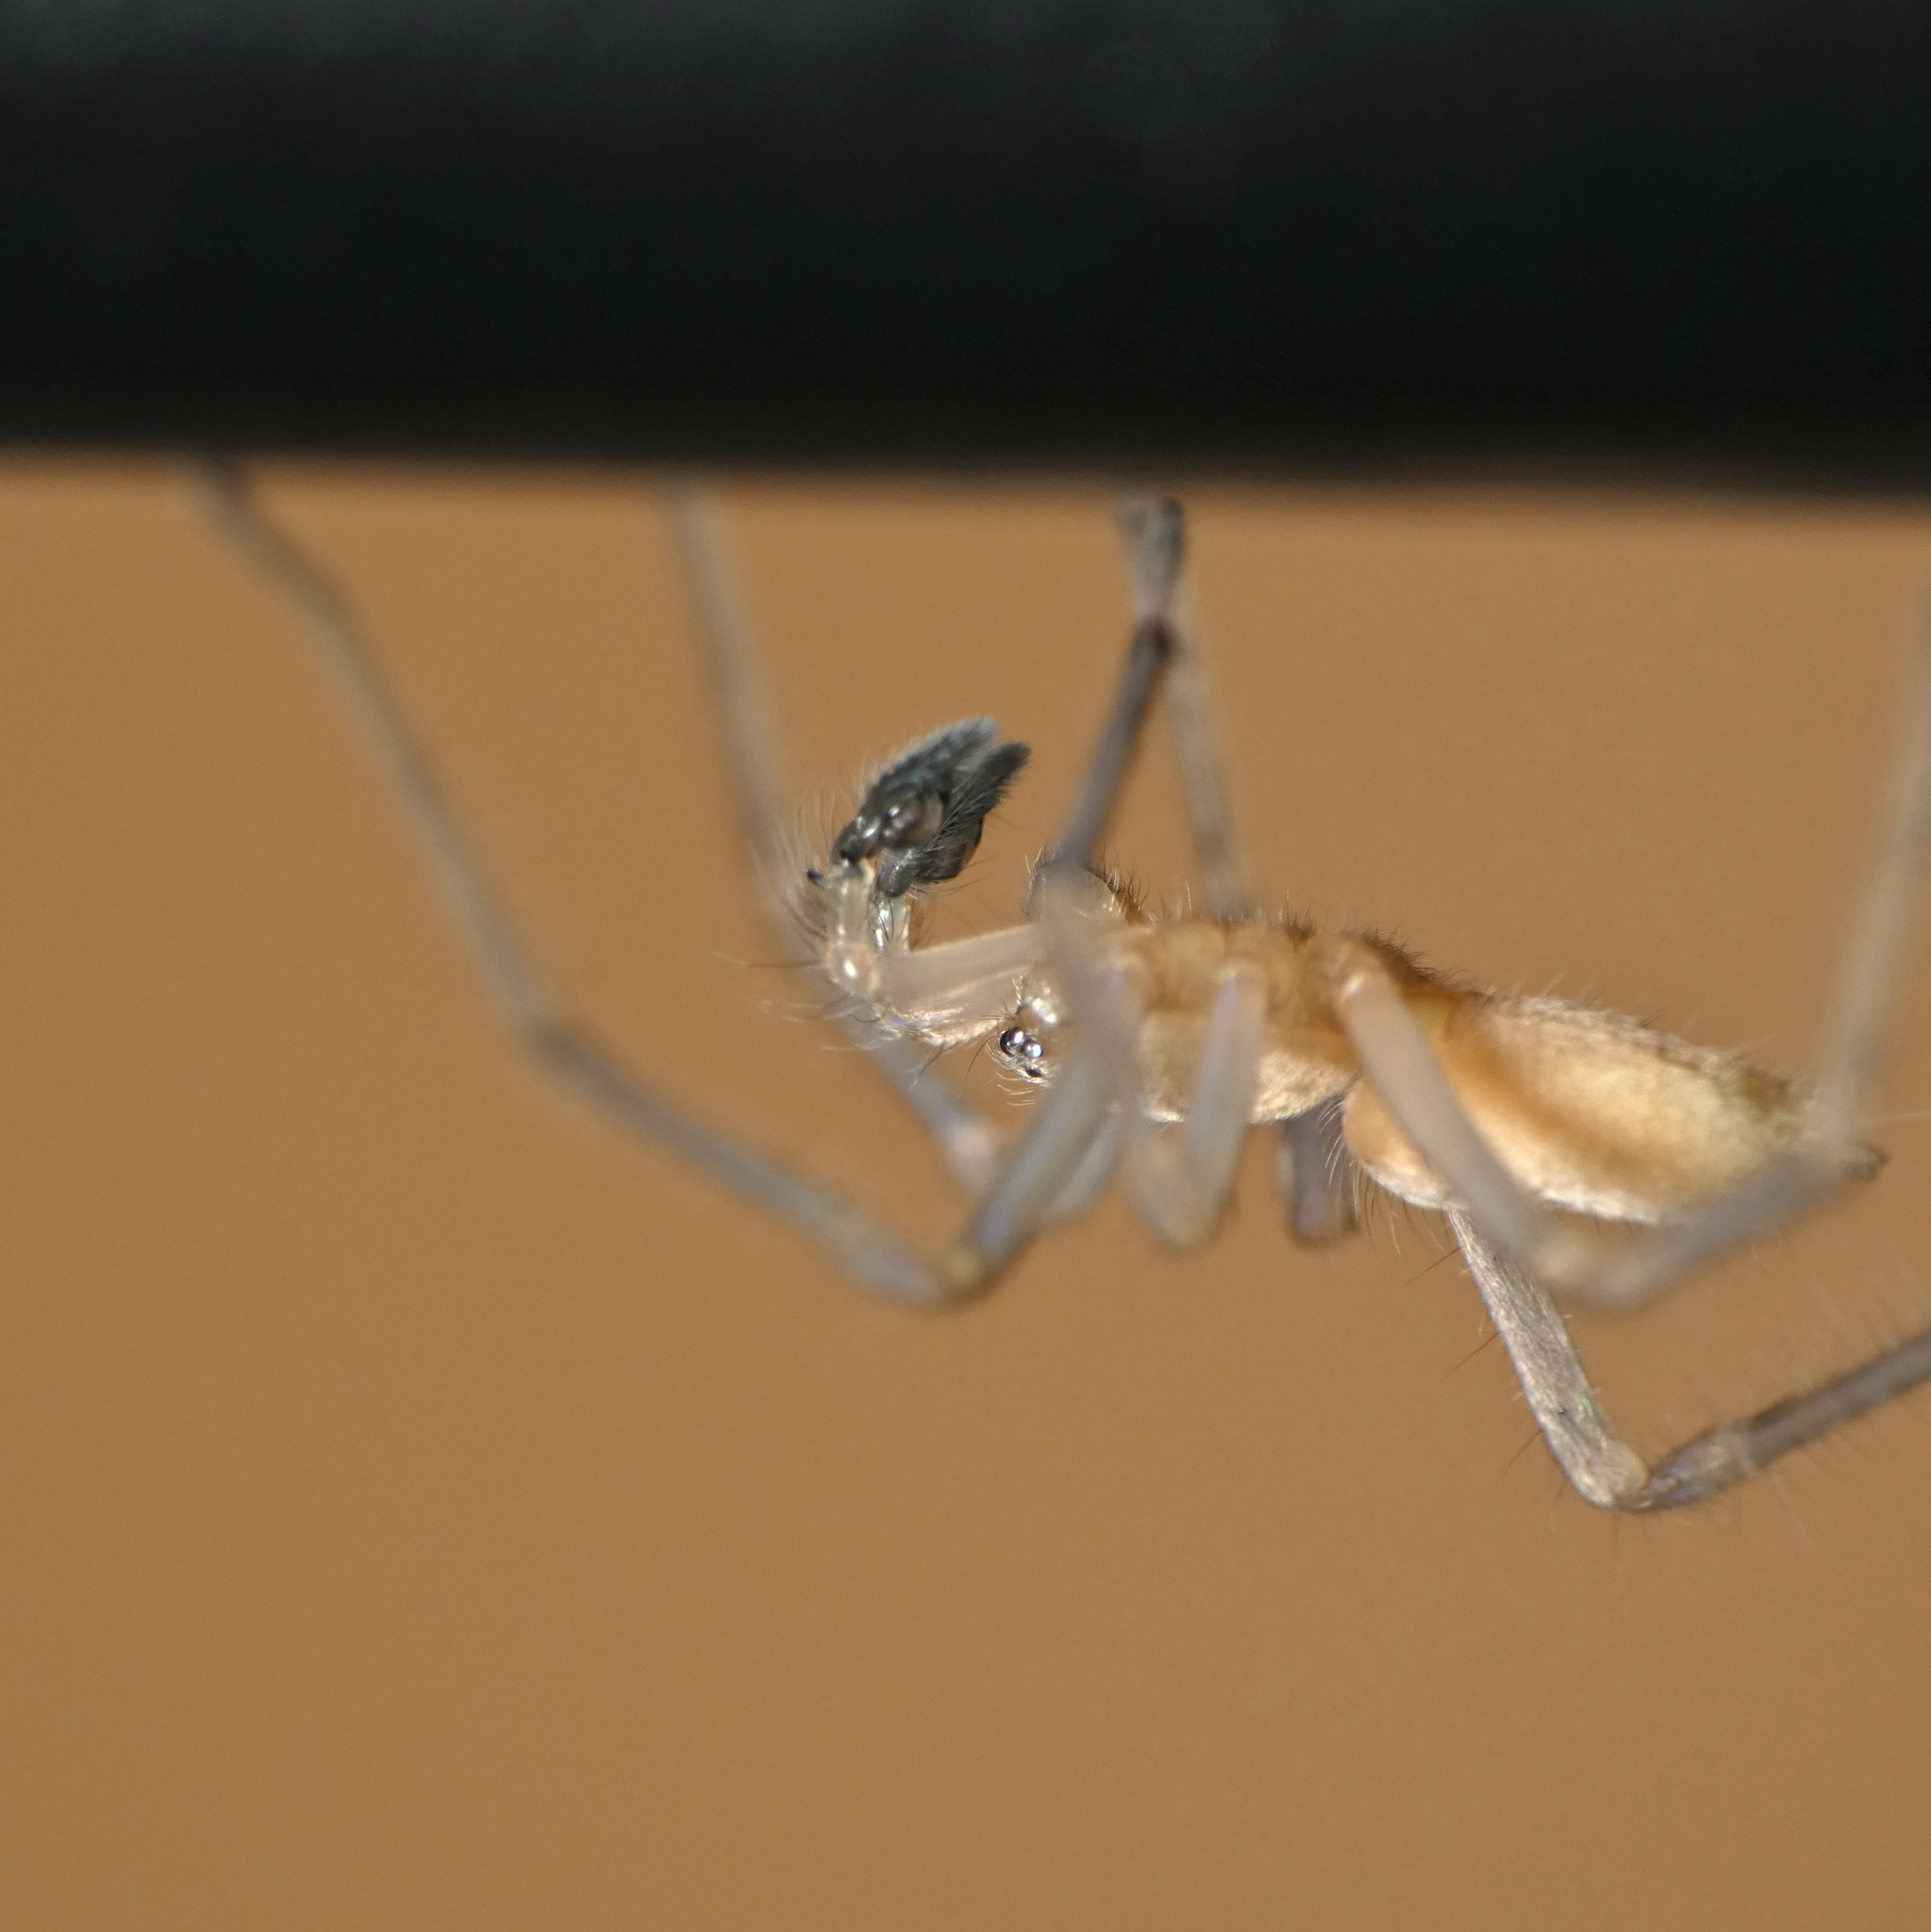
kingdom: Animalia
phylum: Arthropoda
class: Arachnida
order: Araneae
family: Cheiracanthiidae
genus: Cheiracanthium
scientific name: Cheiracanthium molle
